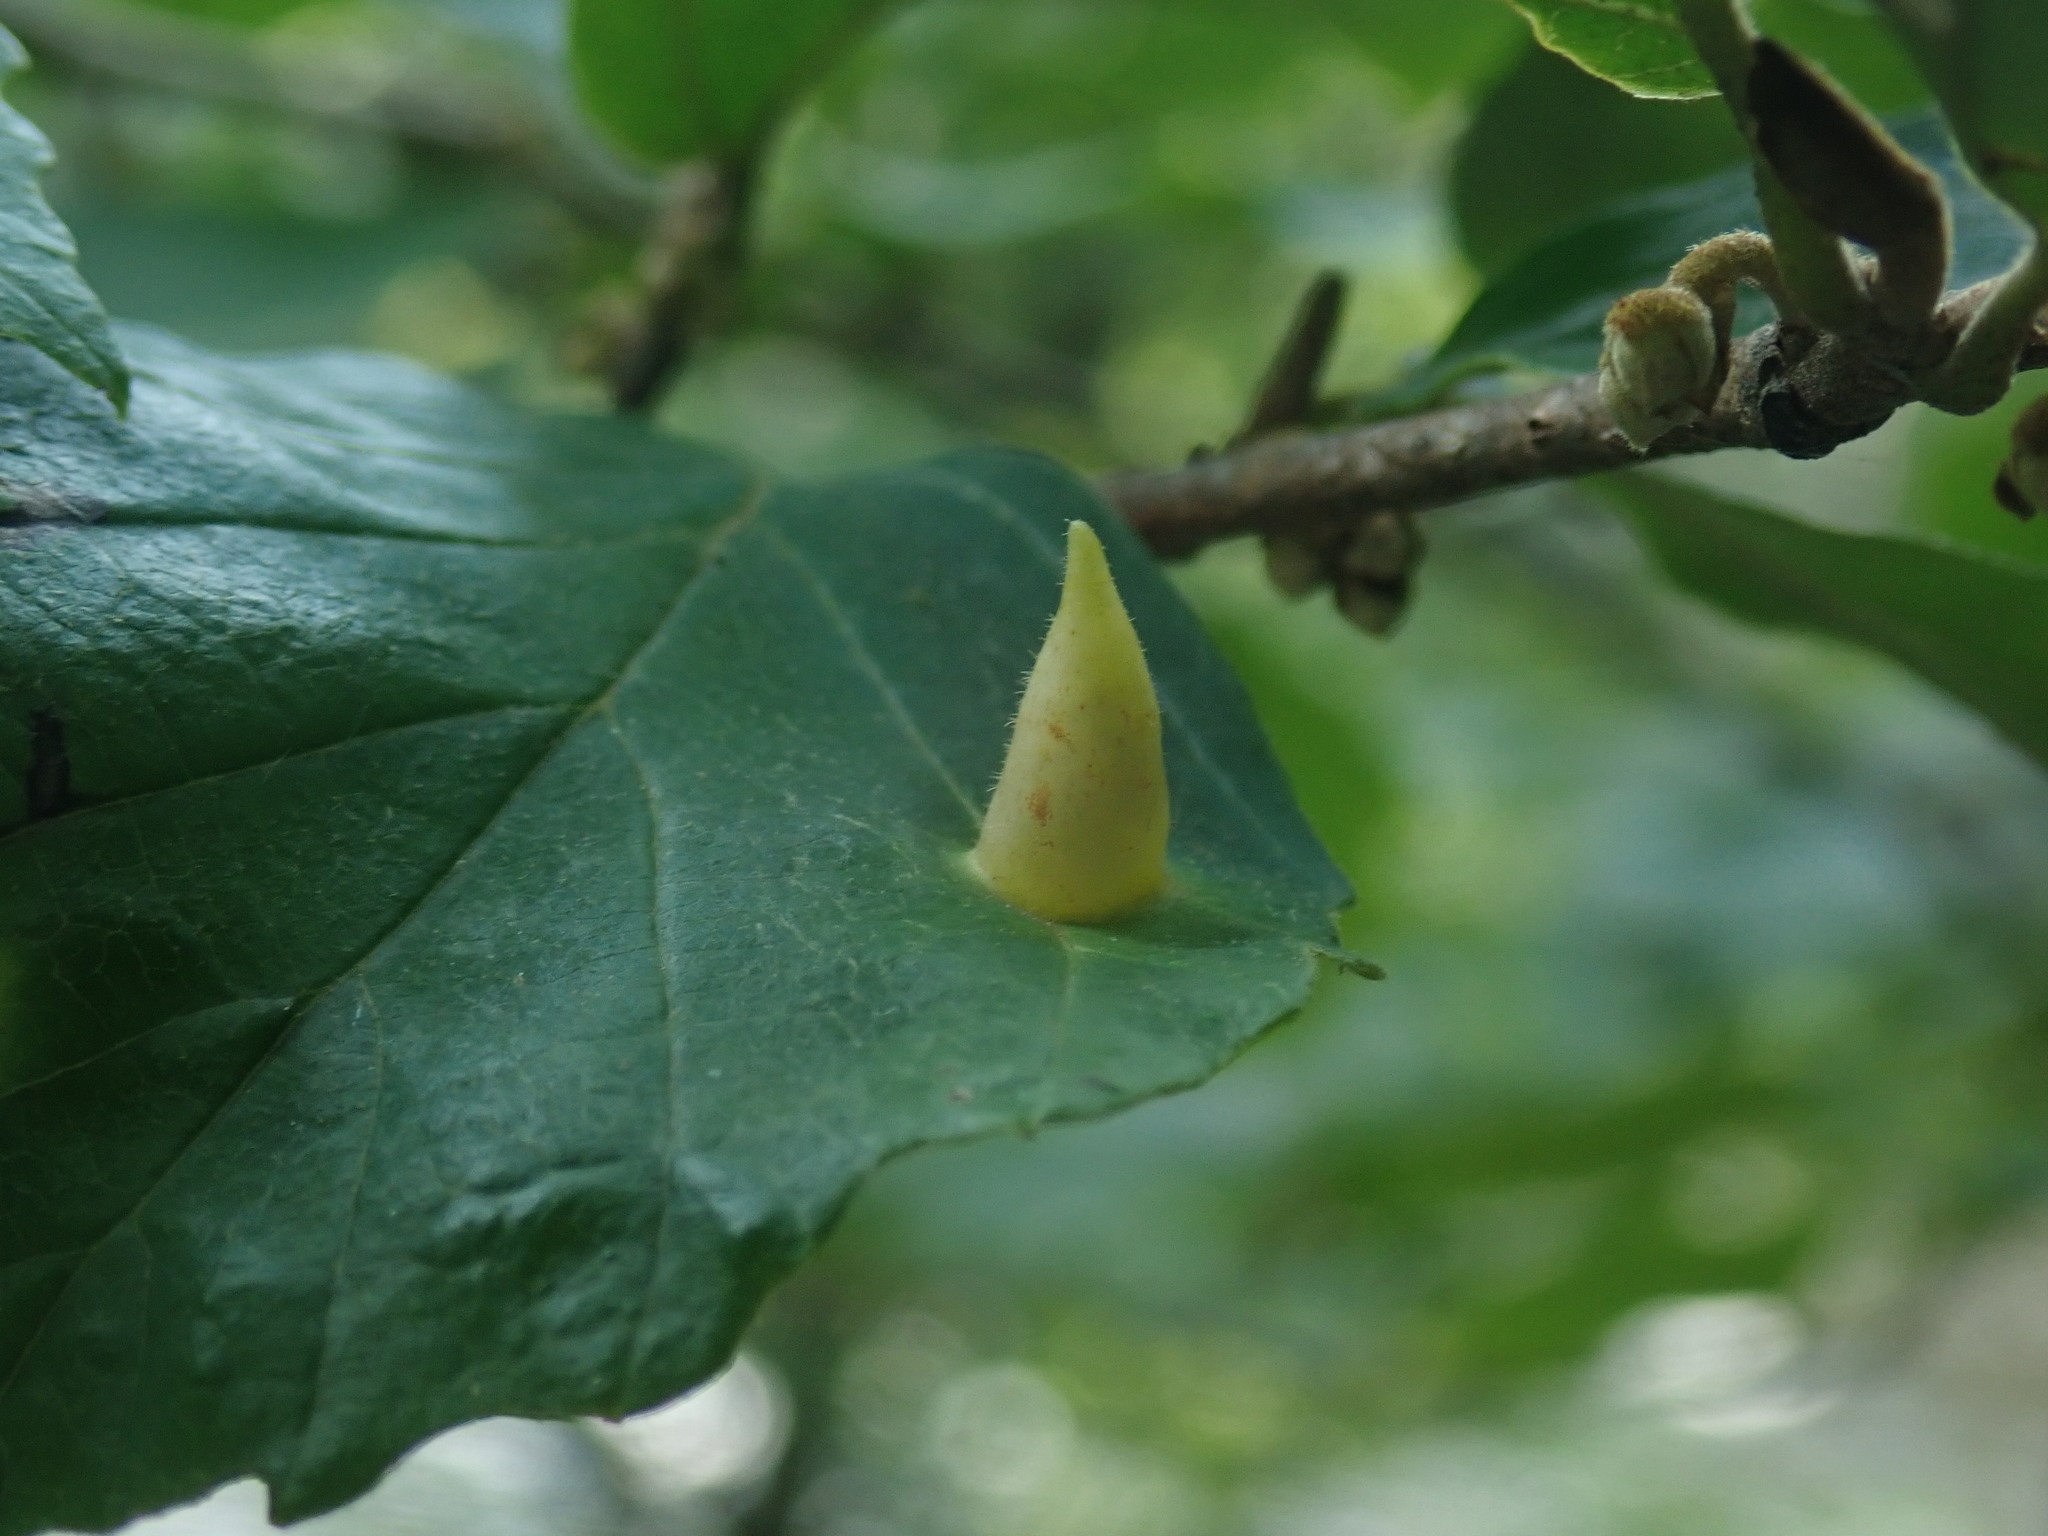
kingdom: Animalia
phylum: Arthropoda
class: Insecta
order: Hemiptera
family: Aphididae
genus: Hormaphis
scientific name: Hormaphis hamamelidis
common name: Witch-hazel cone gall aphid
